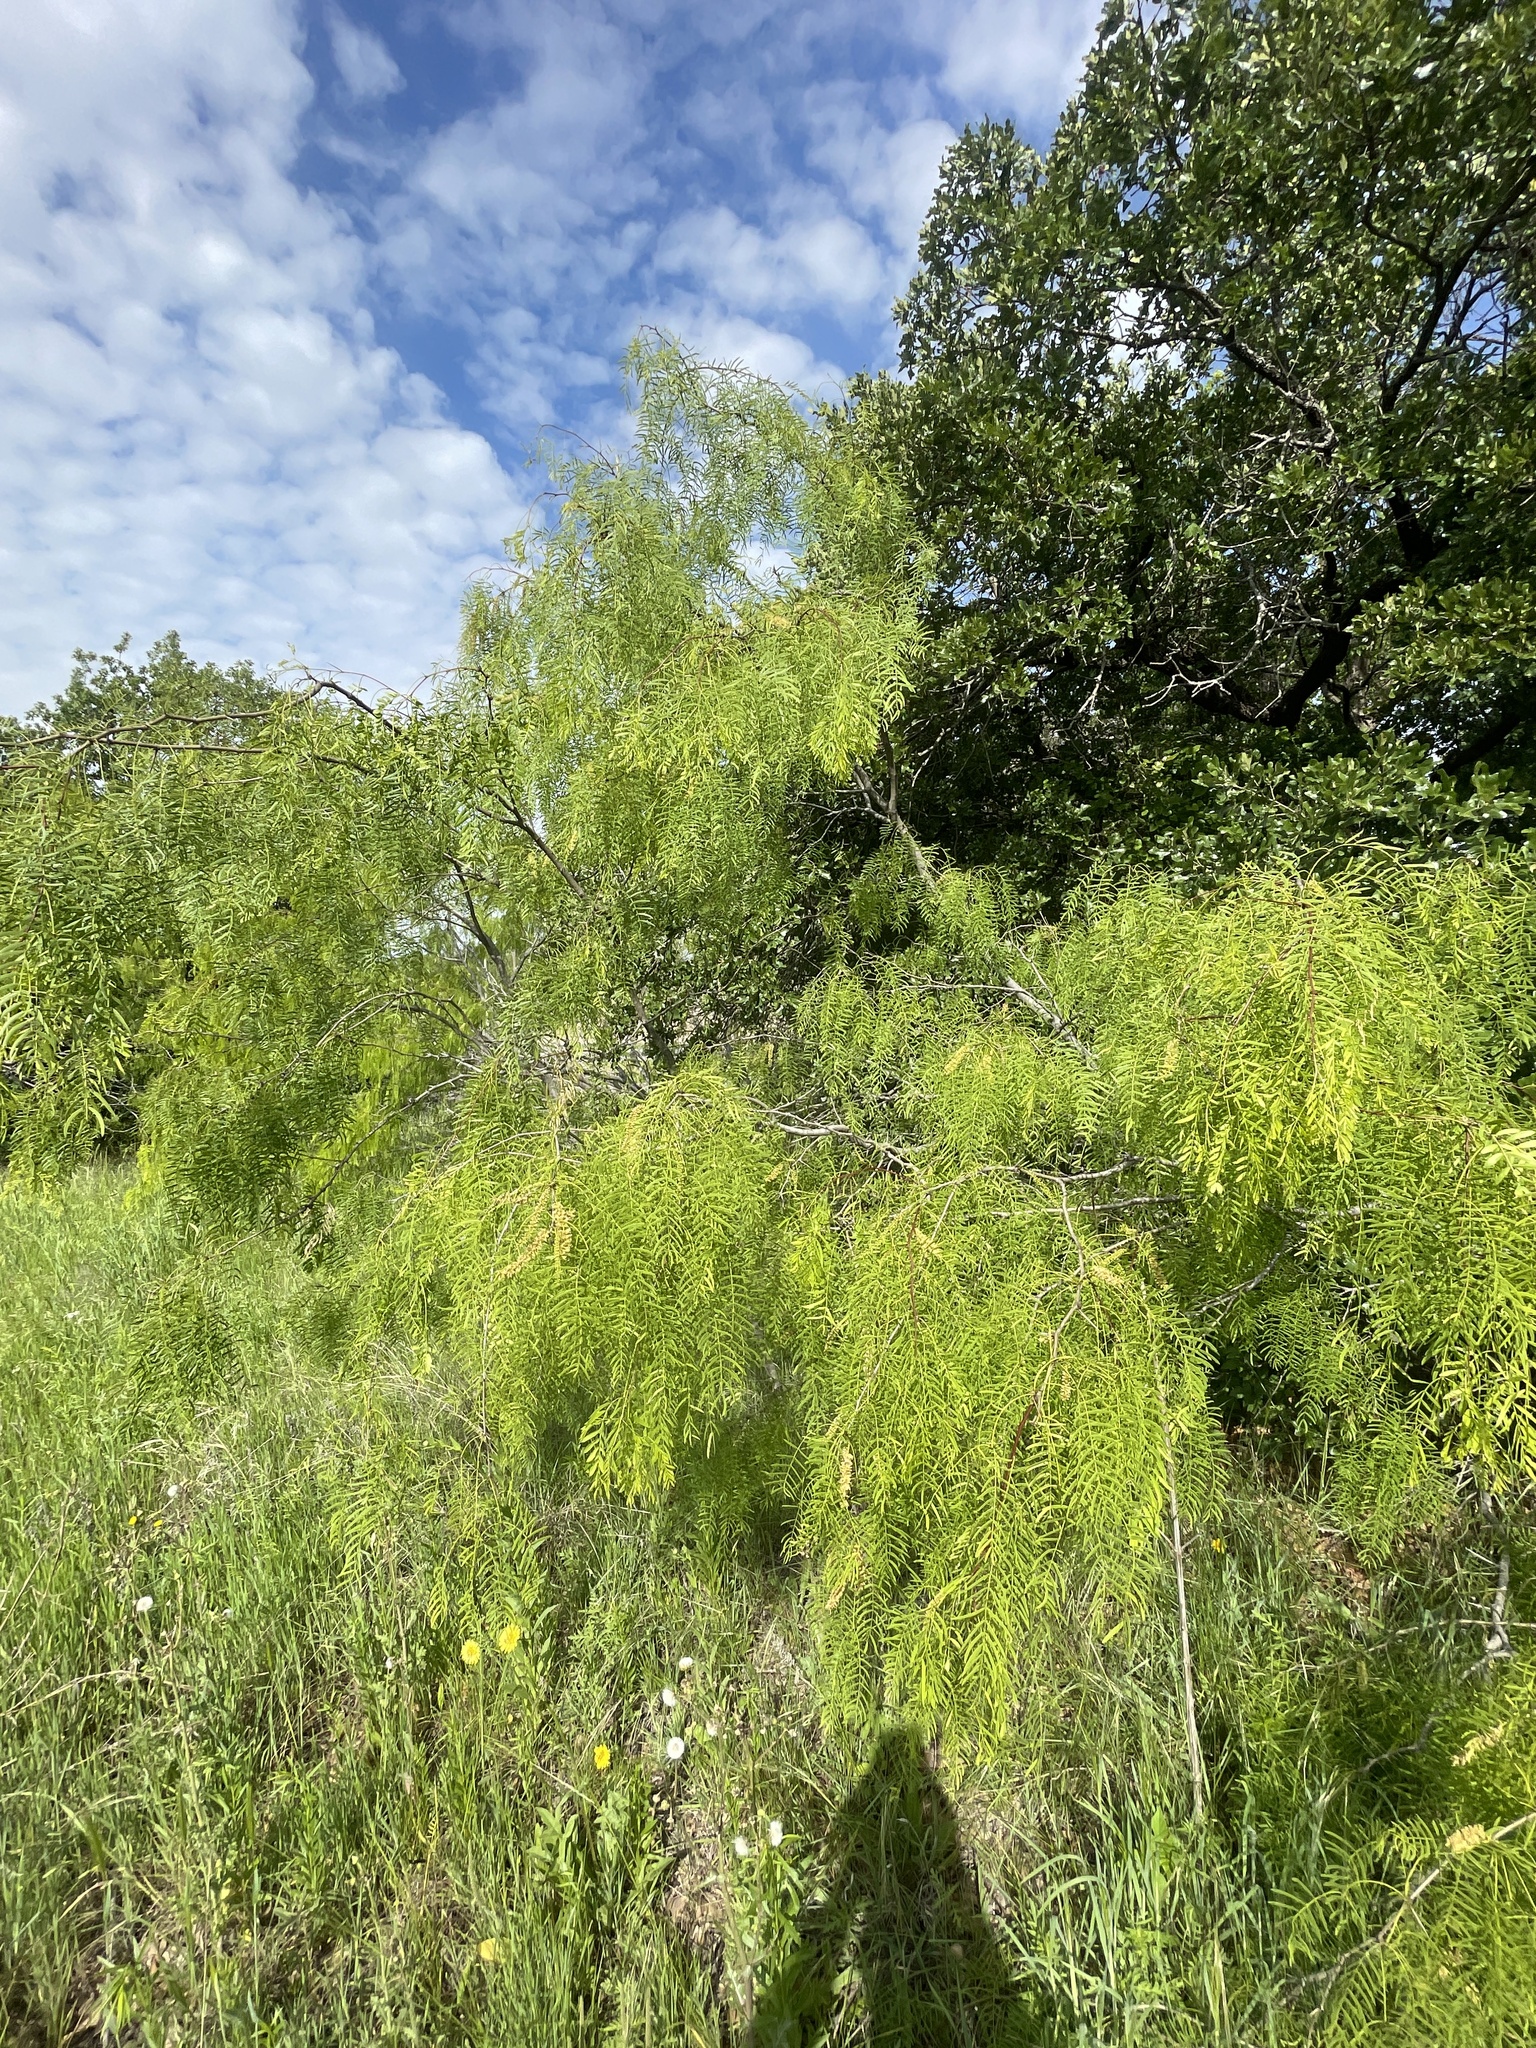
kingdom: Plantae
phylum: Tracheophyta
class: Magnoliopsida
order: Fabales
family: Fabaceae
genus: Prosopis
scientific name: Prosopis glandulosa
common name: Honey mesquite
